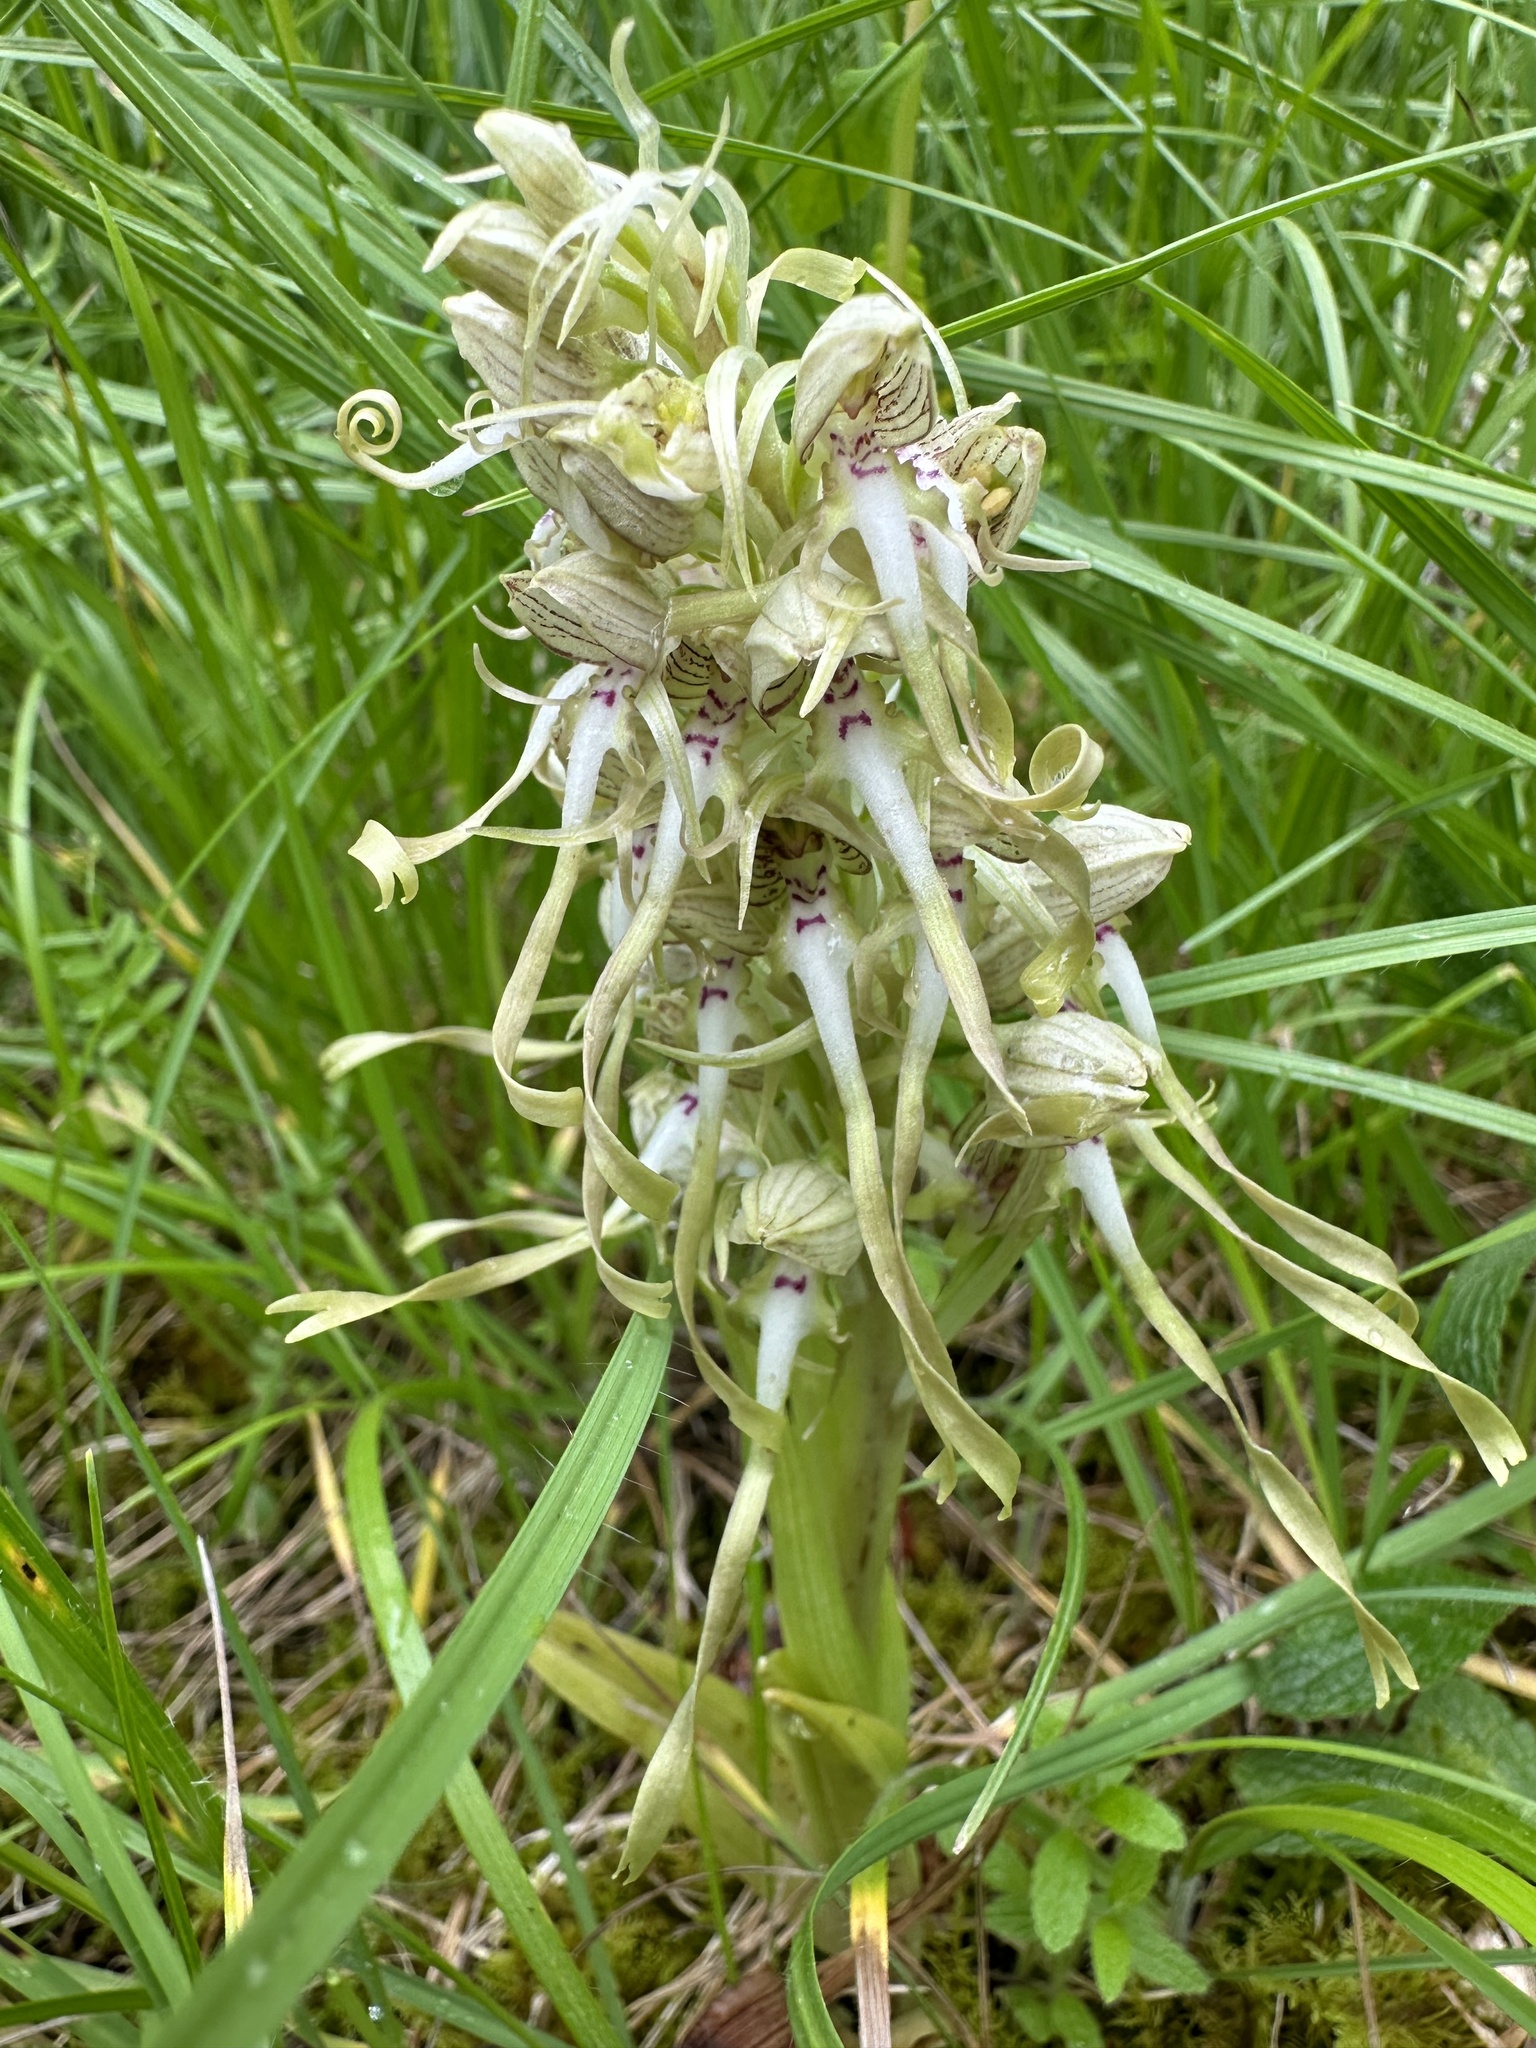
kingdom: Plantae
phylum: Tracheophyta
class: Liliopsida
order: Asparagales
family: Orchidaceae
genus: Himantoglossum
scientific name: Himantoglossum hircinum
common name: Lizard orchid
